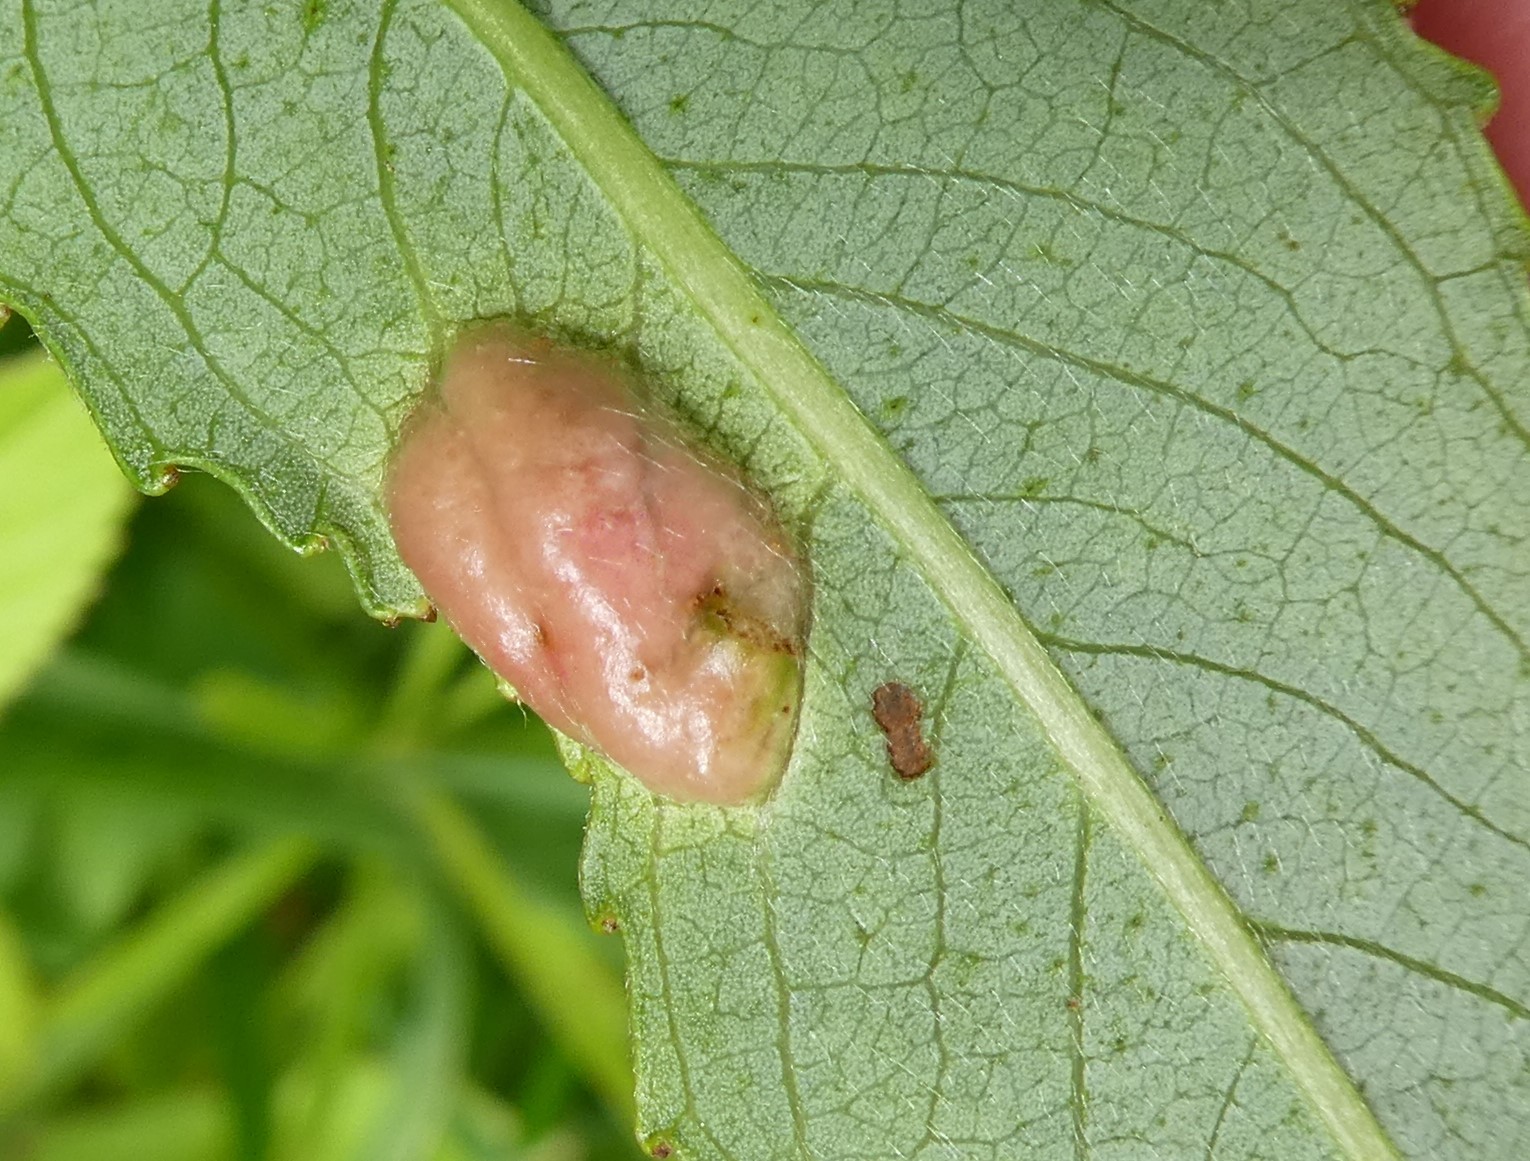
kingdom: Animalia
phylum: Arthropoda
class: Insecta
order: Hymenoptera
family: Tenthredinidae
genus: Pontania
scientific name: Pontania proxima
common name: Common sawfly
